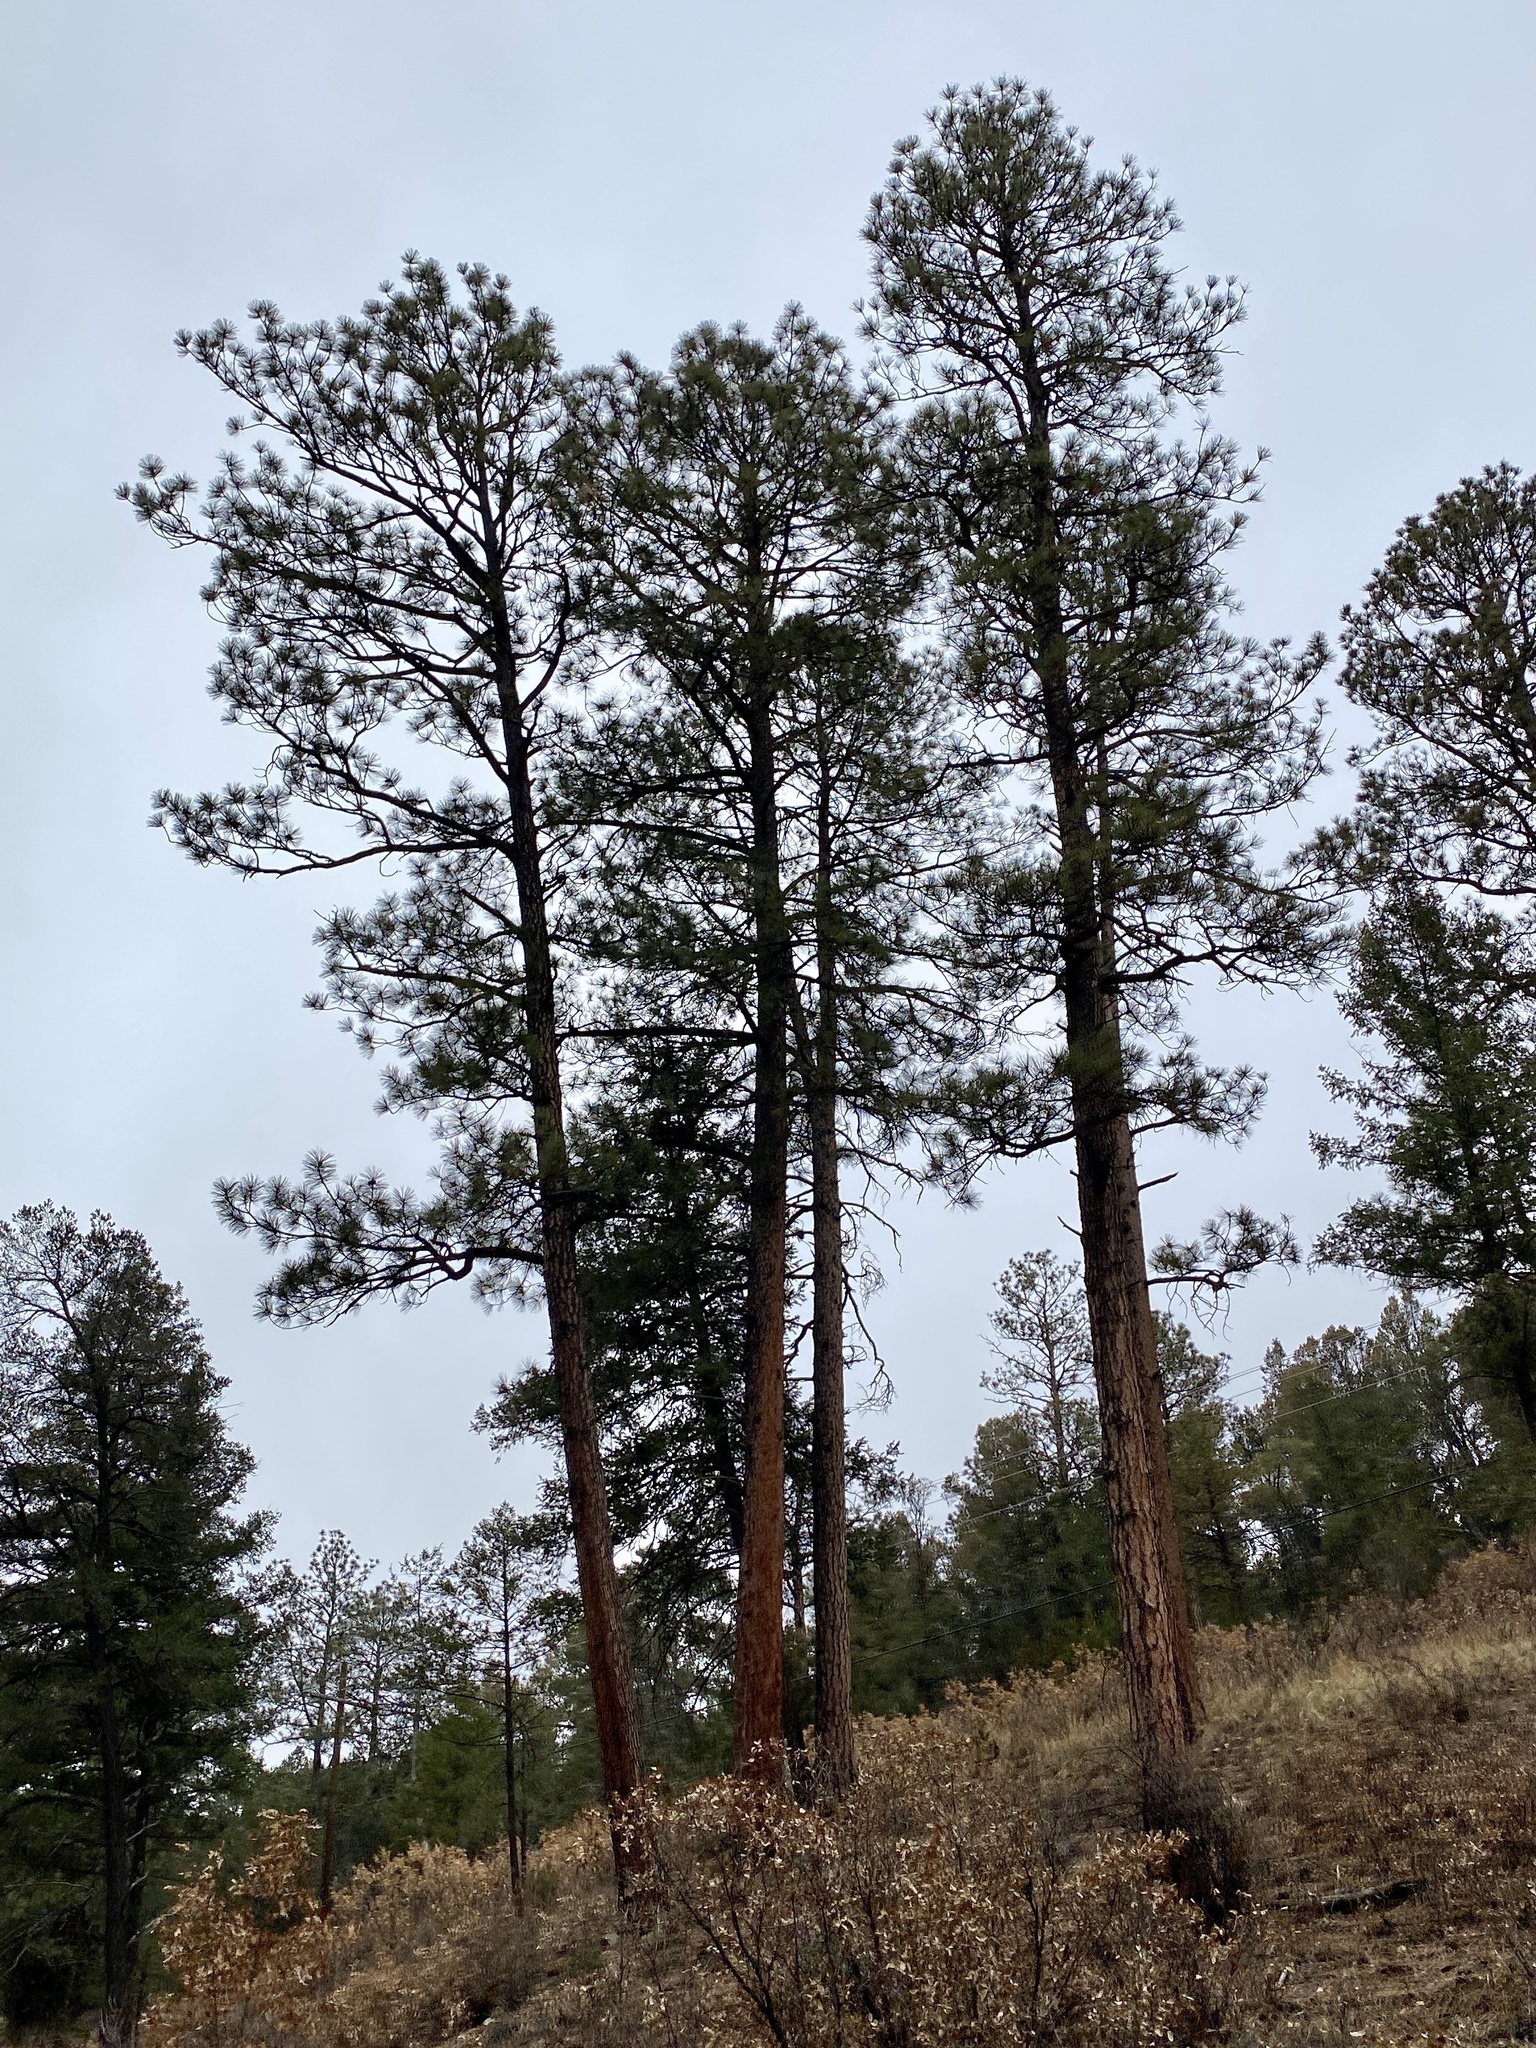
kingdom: Plantae
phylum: Tracheophyta
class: Pinopsida
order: Pinales
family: Pinaceae
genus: Pinus
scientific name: Pinus ponderosa
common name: Western yellow-pine
